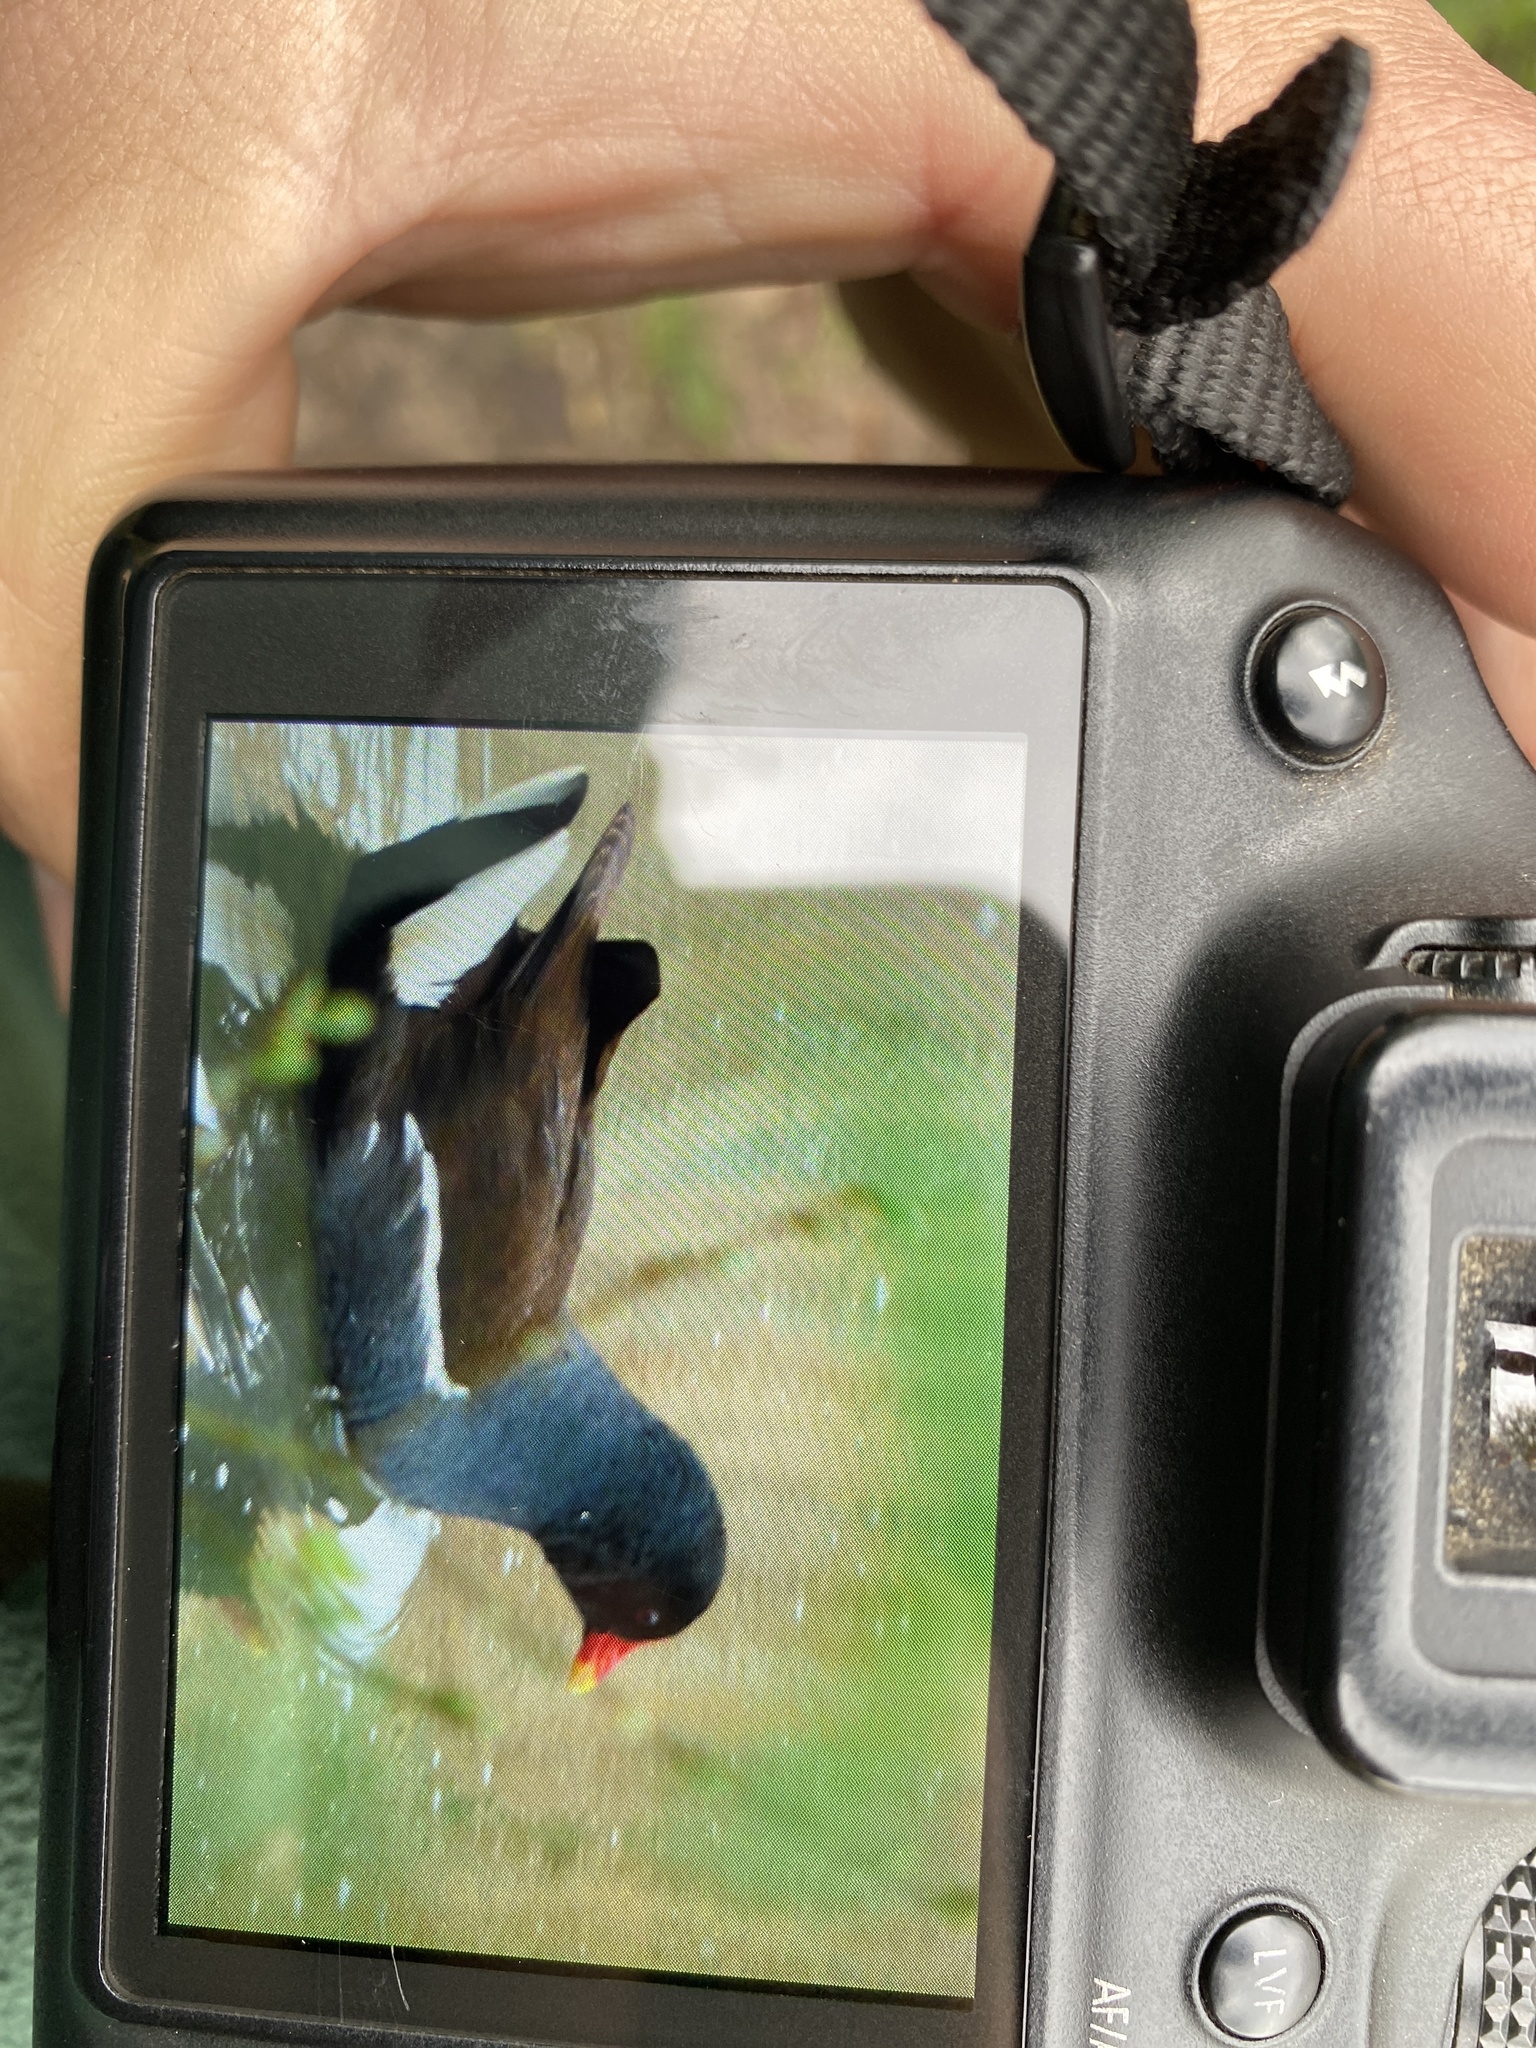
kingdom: Animalia
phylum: Chordata
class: Aves
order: Gruiformes
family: Rallidae
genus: Gallinula
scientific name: Gallinula chloropus
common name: Common moorhen
